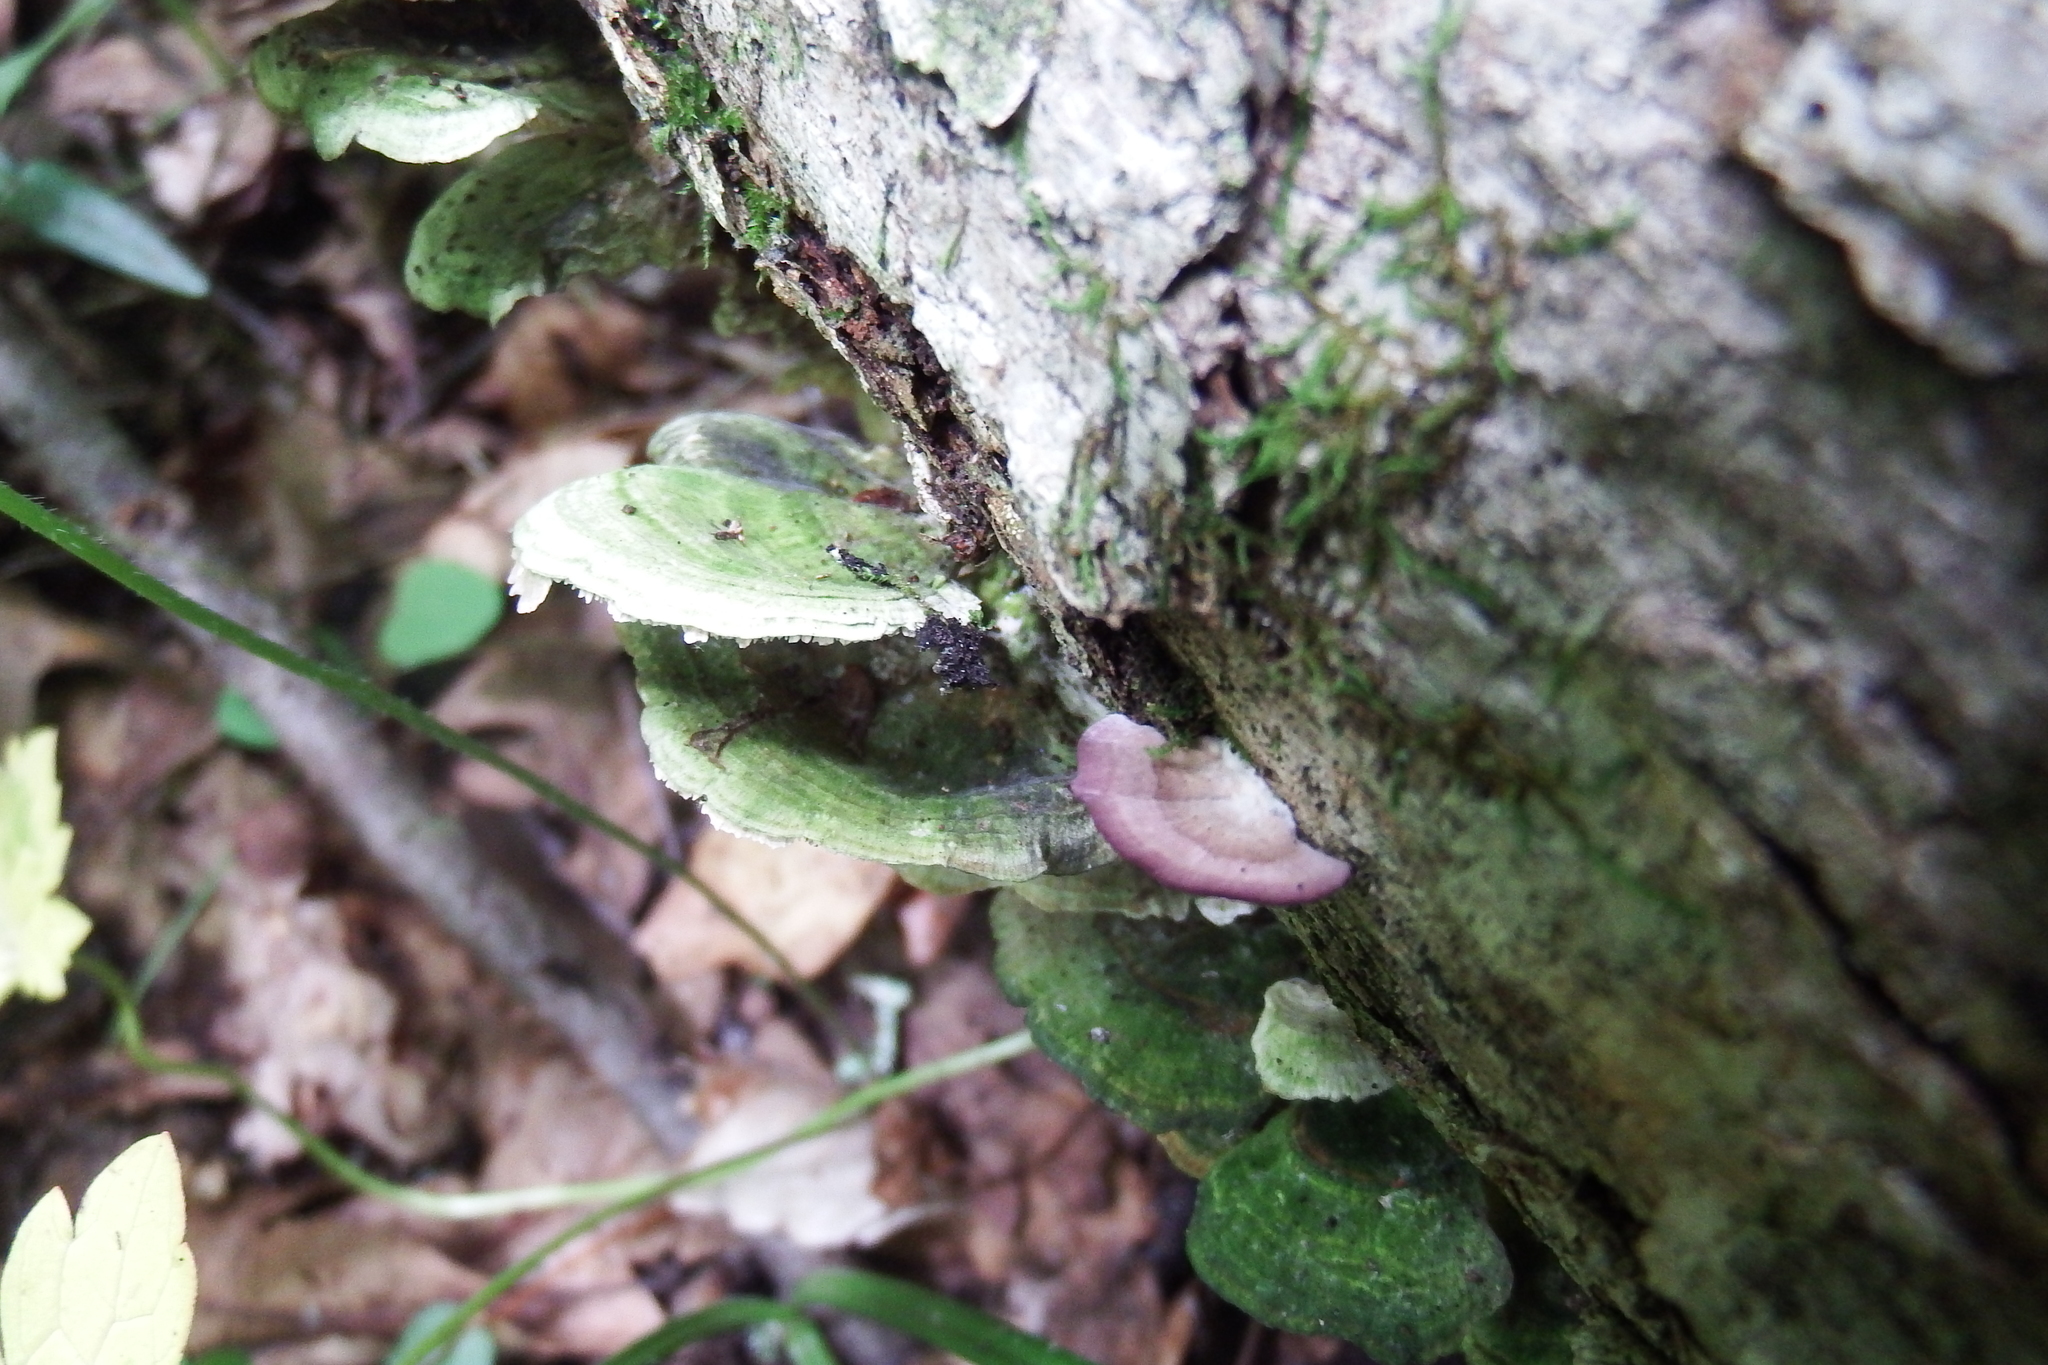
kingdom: Fungi
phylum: Basidiomycota
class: Agaricomycetes
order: Hymenochaetales
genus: Trichaptum
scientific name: Trichaptum biforme
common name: Violet-toothed polypore
